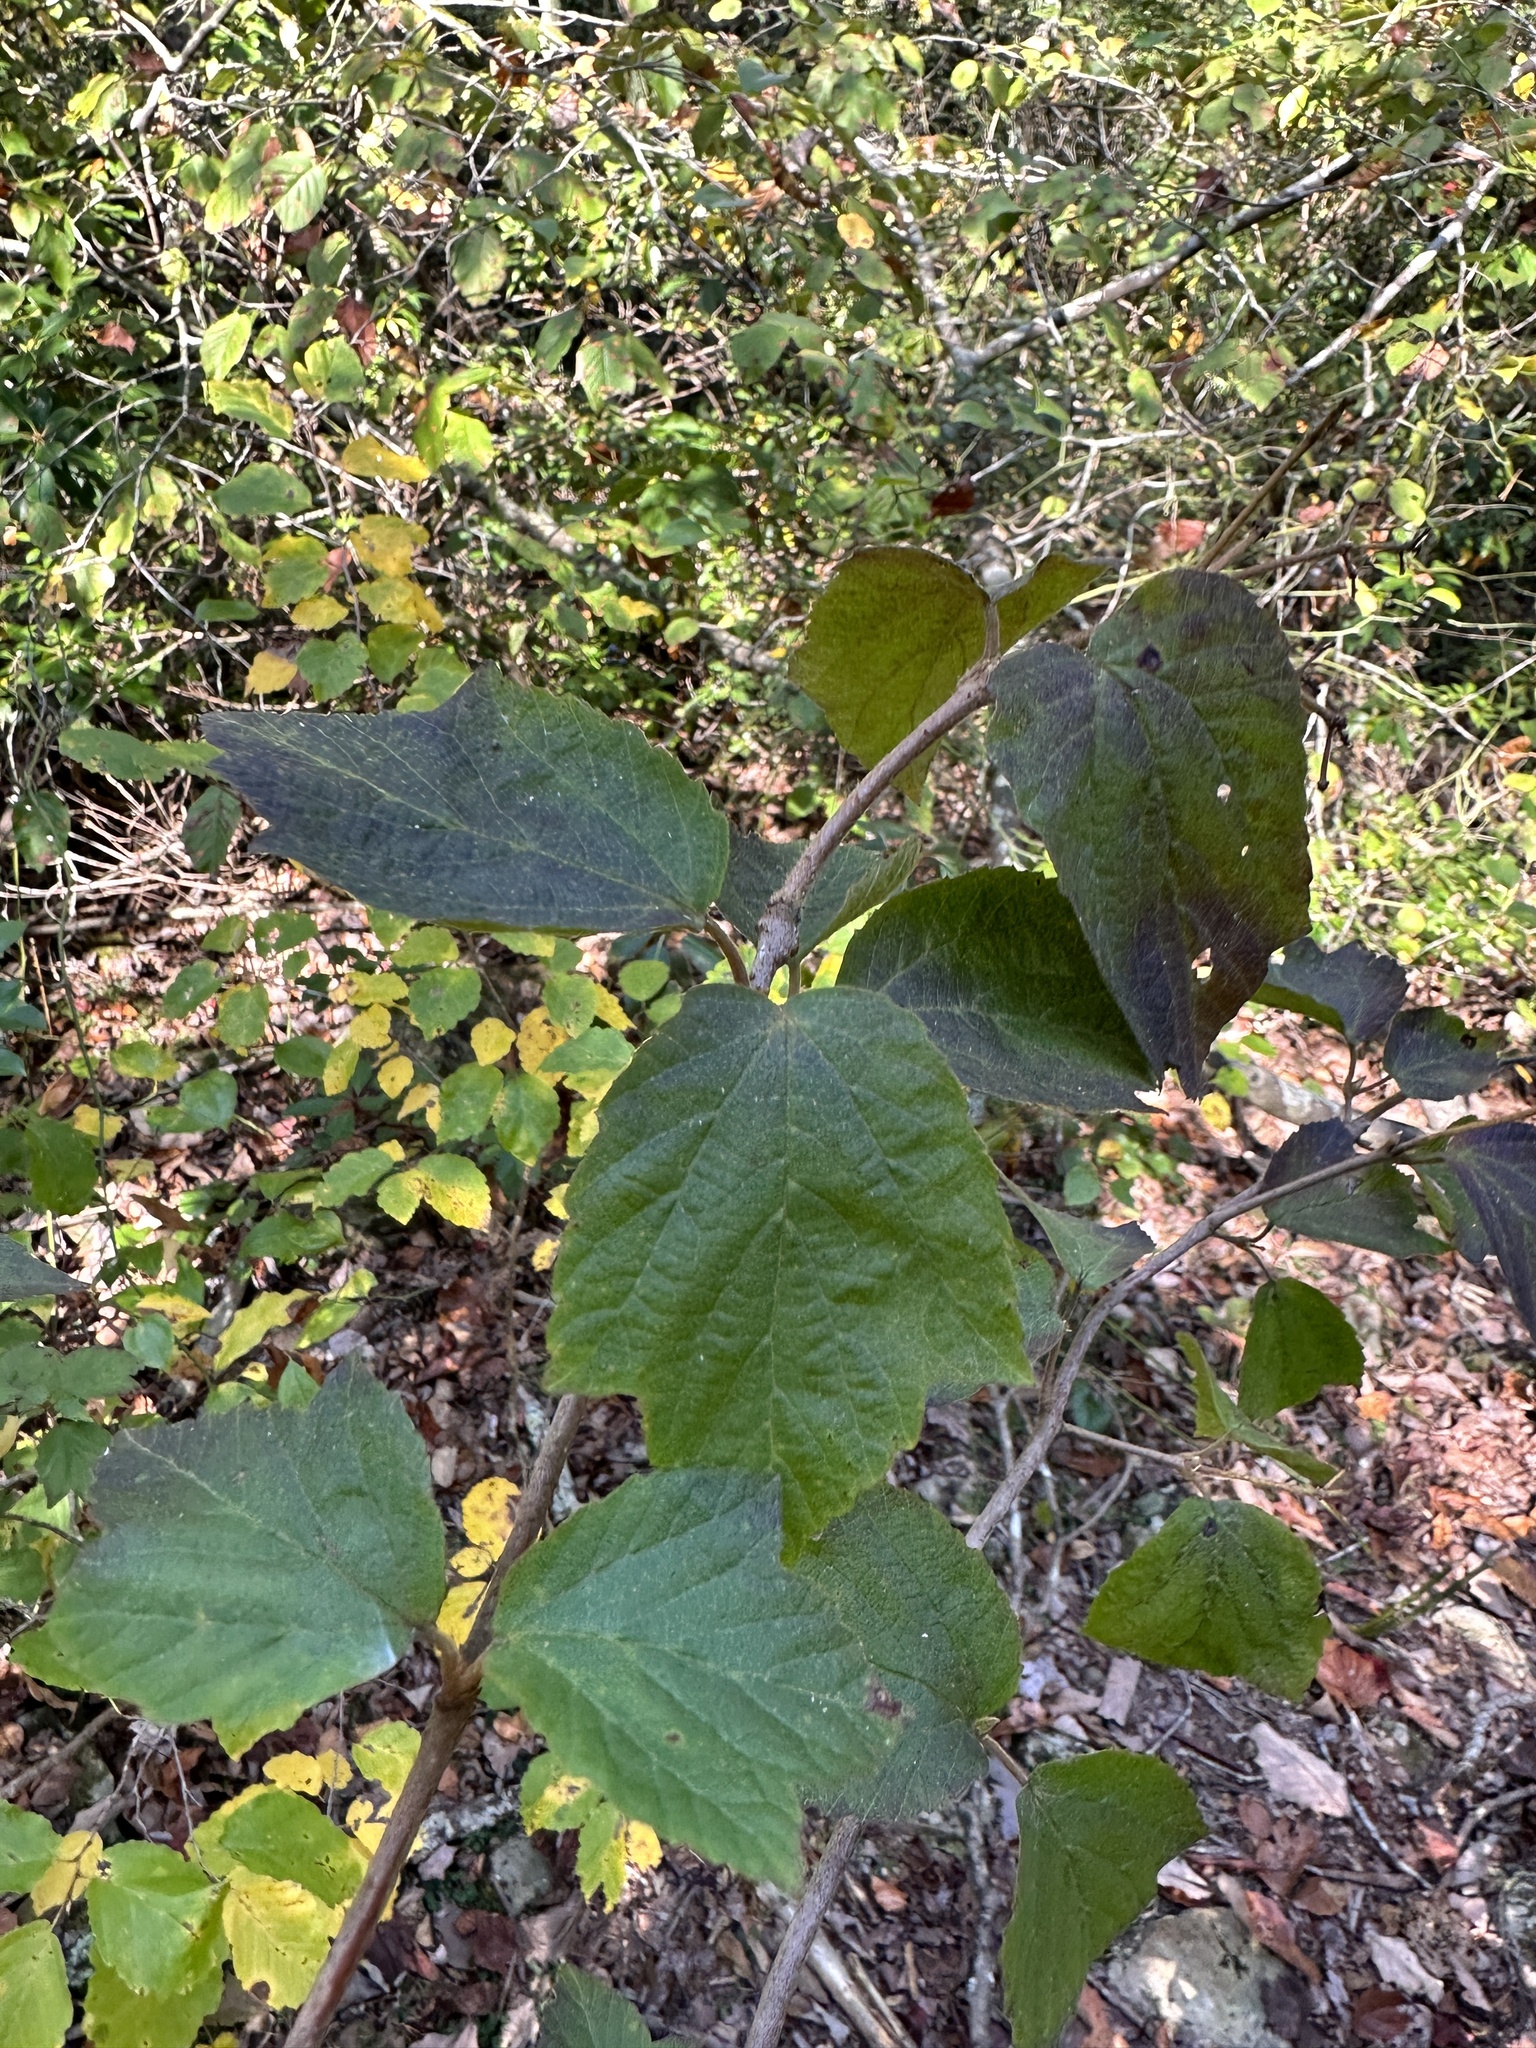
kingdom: Plantae
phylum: Tracheophyta
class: Magnoliopsida
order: Dipsacales
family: Viburnaceae
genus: Viburnum
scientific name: Viburnum acerifolium
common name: Dockmackie
